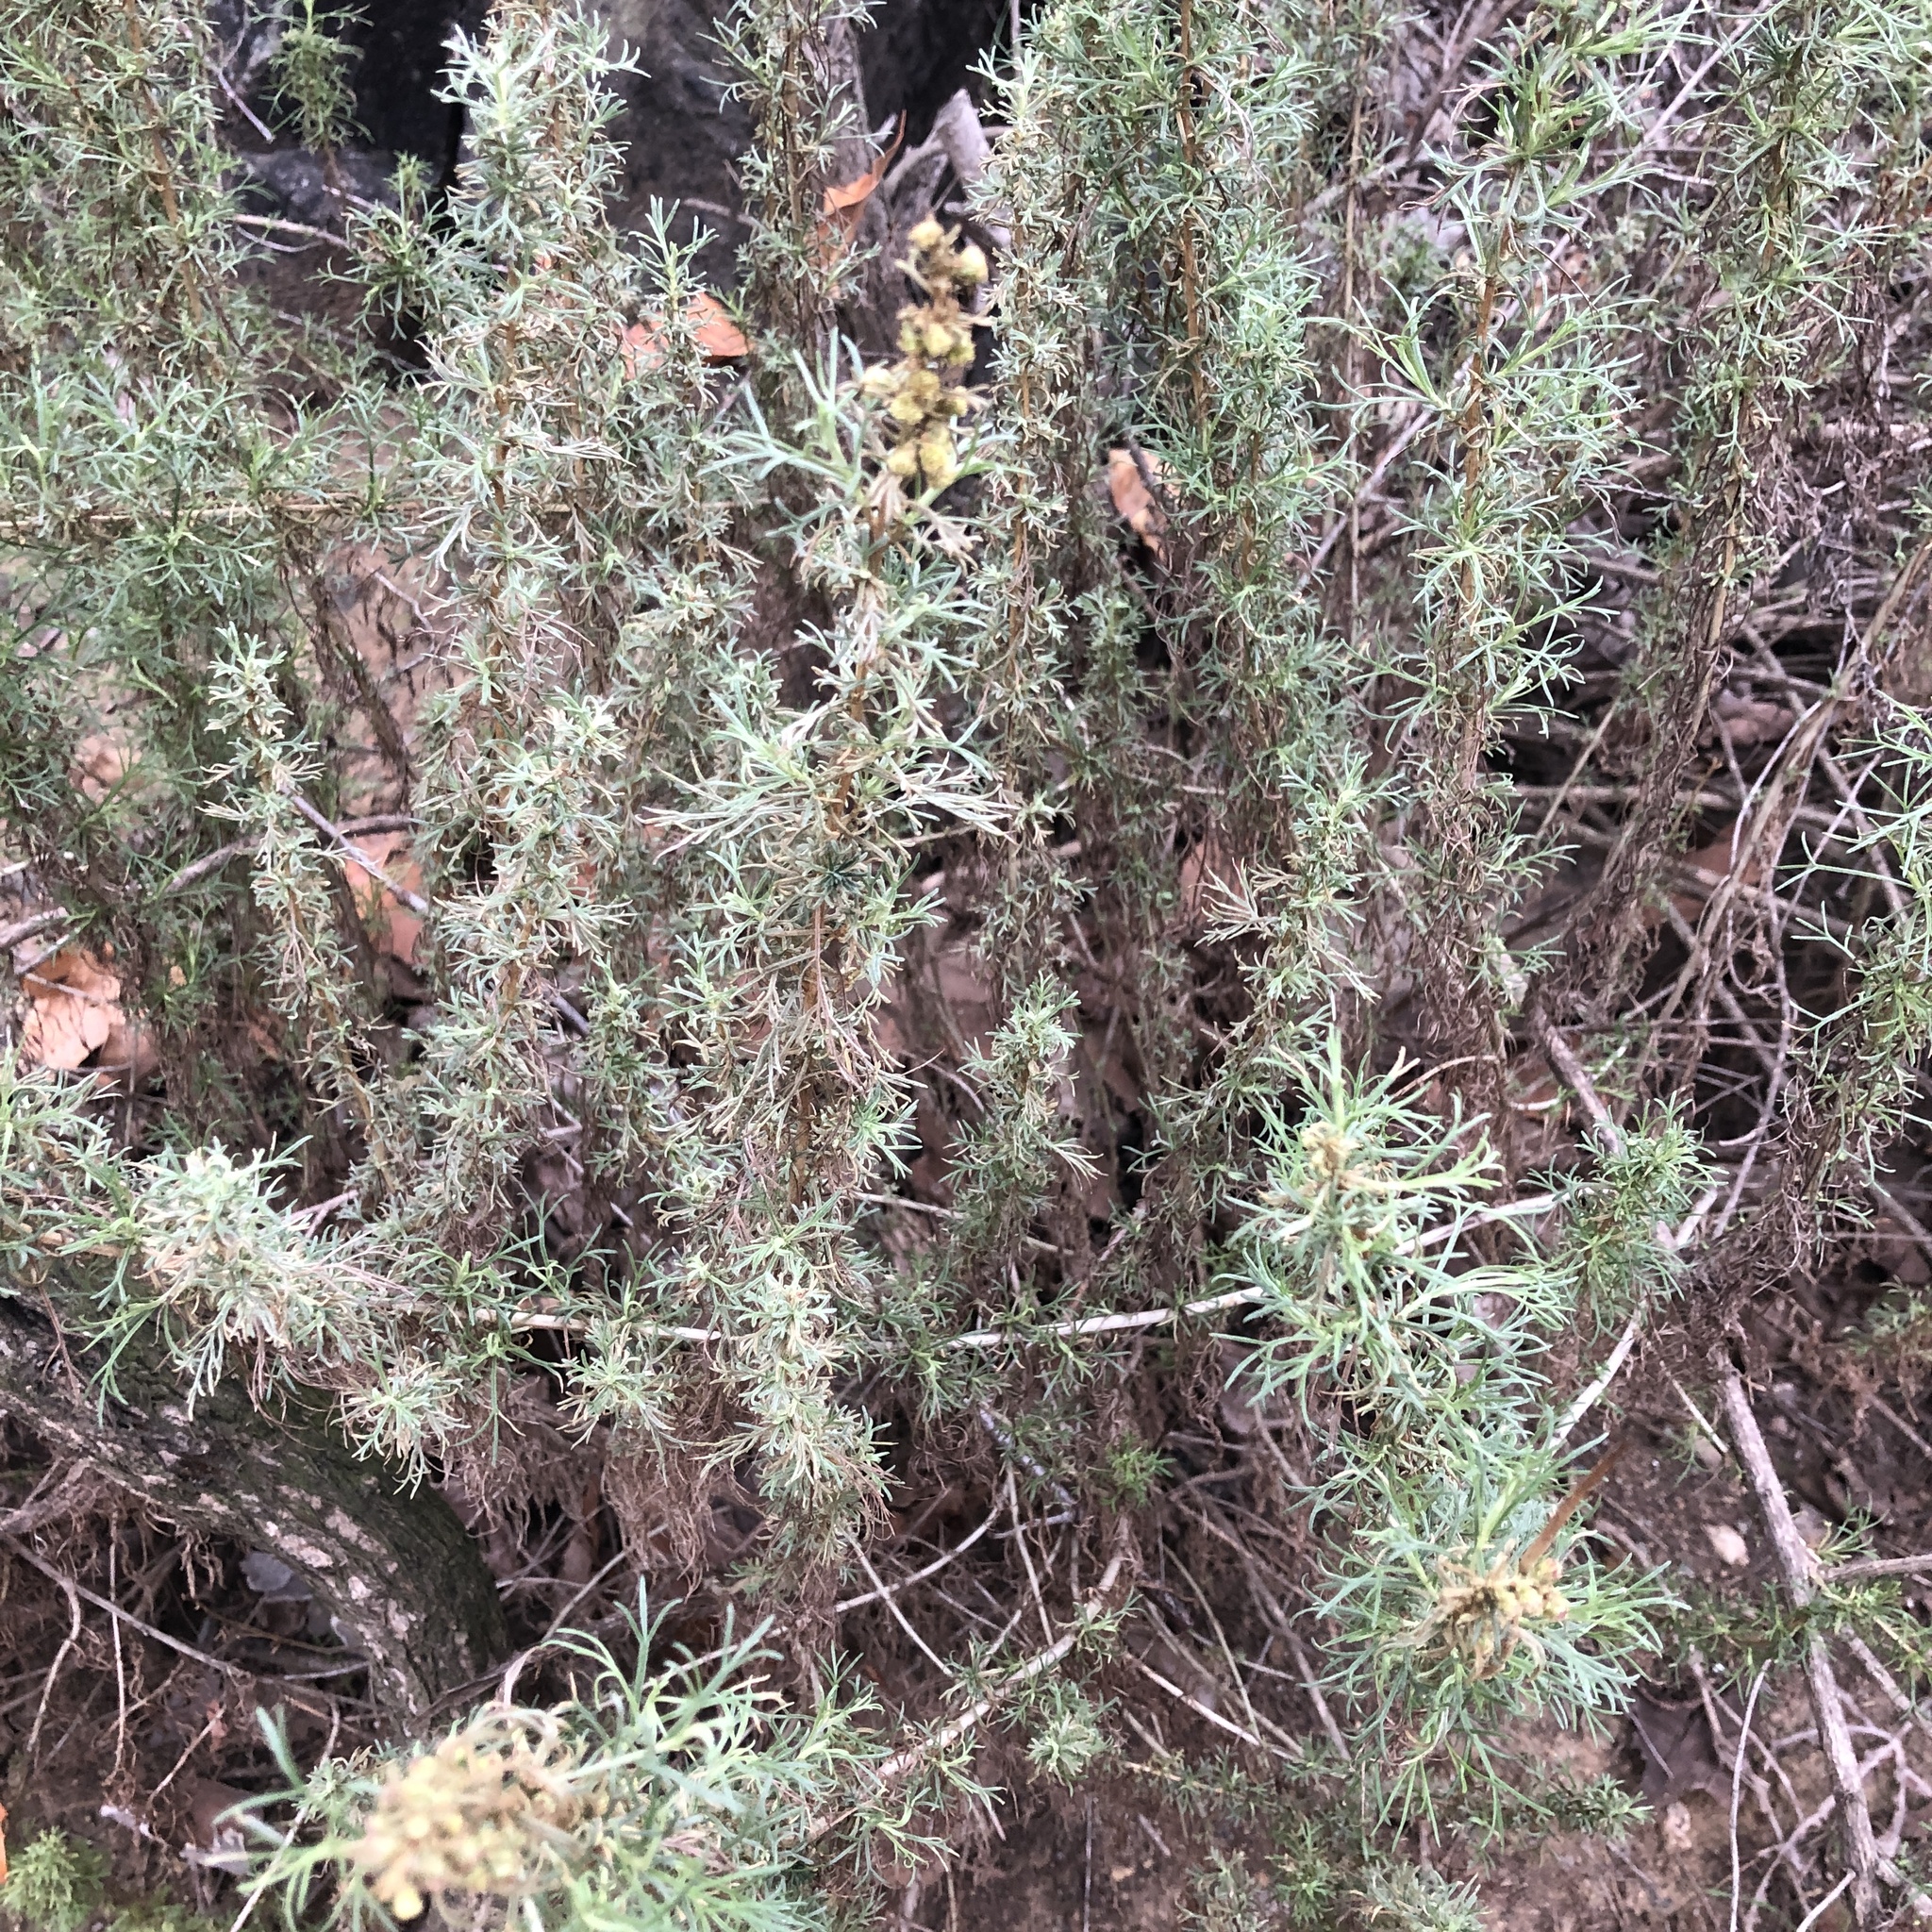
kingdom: Plantae
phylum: Tracheophyta
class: Magnoliopsida
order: Asterales
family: Asteraceae
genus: Artemisia
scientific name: Artemisia californica
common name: California sagebrush
